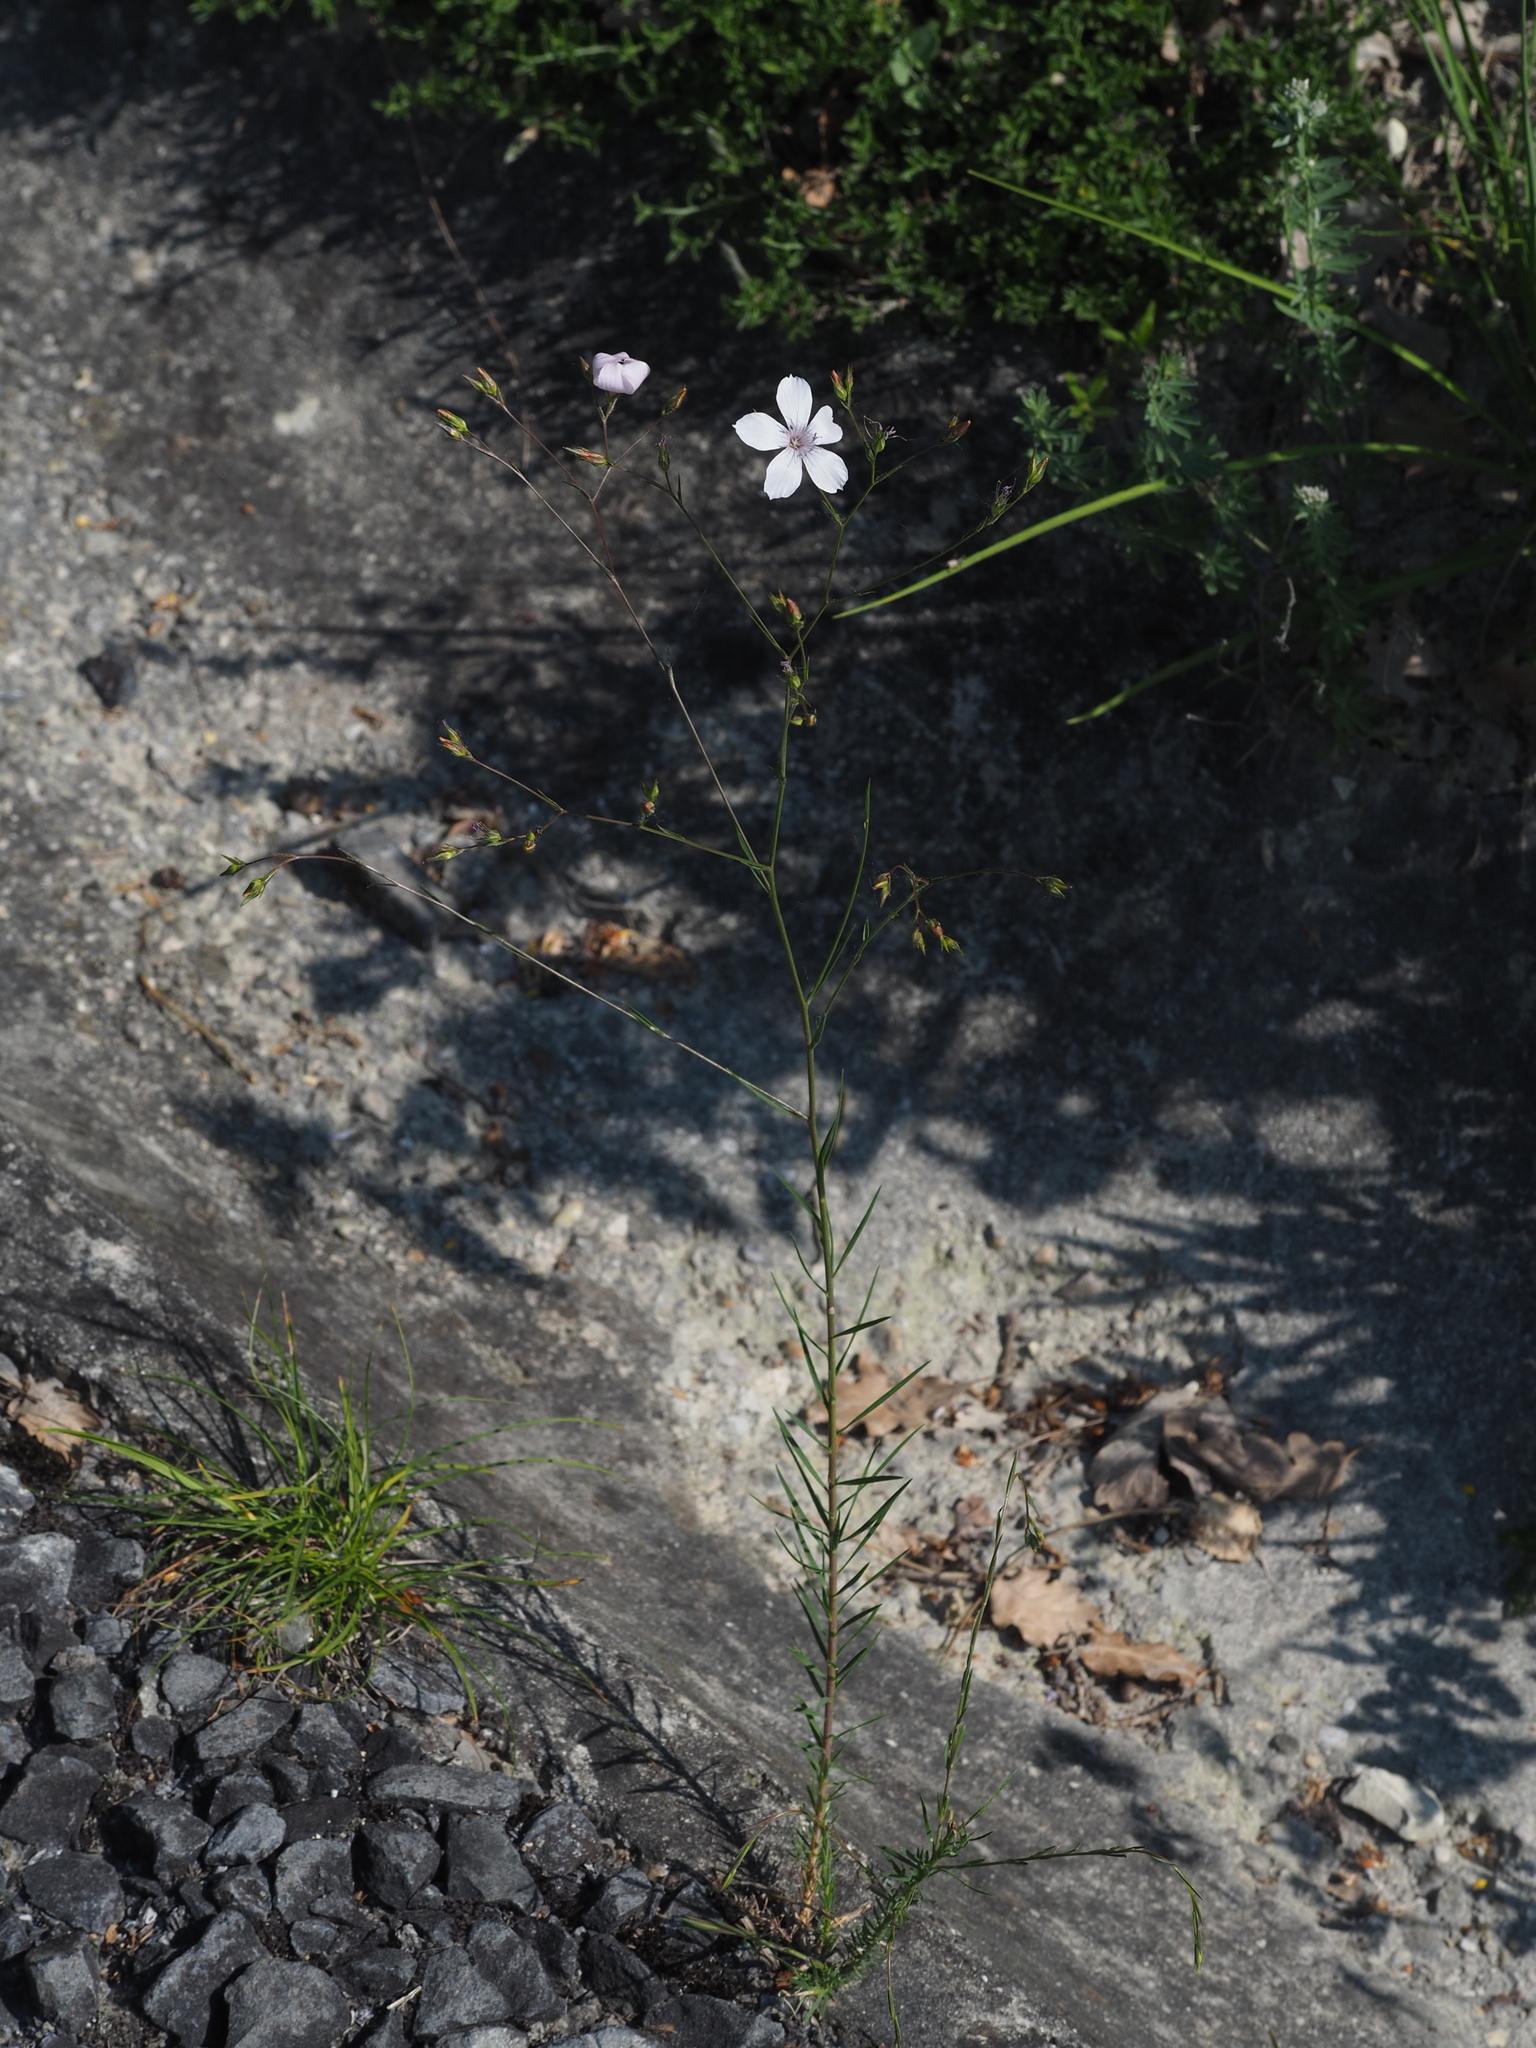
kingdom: Plantae
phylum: Tracheophyta
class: Magnoliopsida
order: Malpighiales
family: Linaceae
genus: Linum
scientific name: Linum tenuifolium
